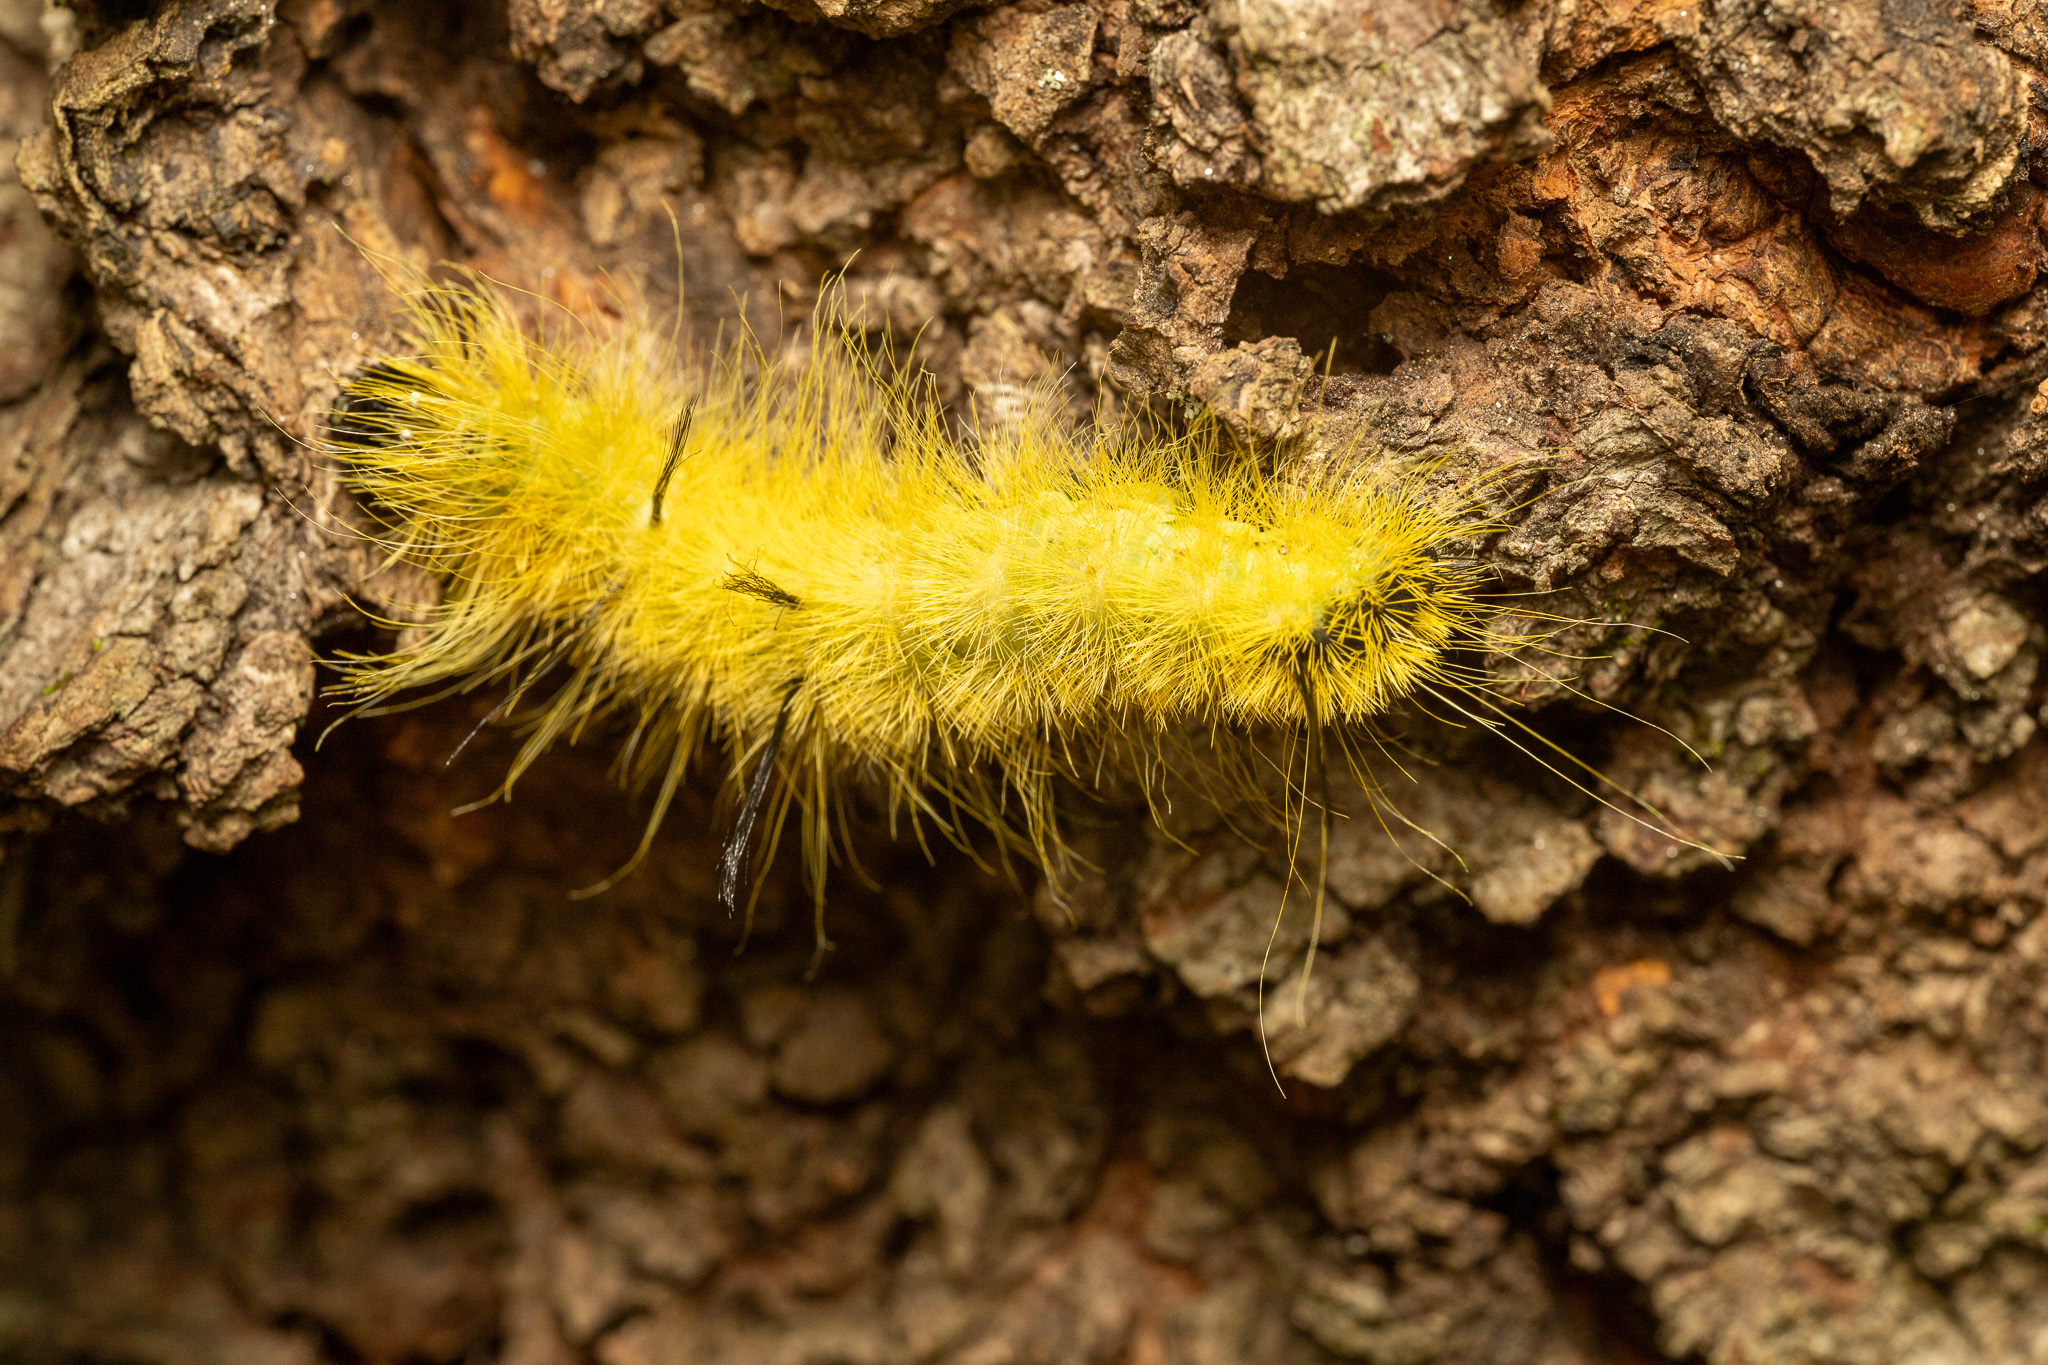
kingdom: Animalia
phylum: Arthropoda
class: Insecta
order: Lepidoptera
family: Noctuidae
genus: Acronicta
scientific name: Acronicta americana
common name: American dagger
